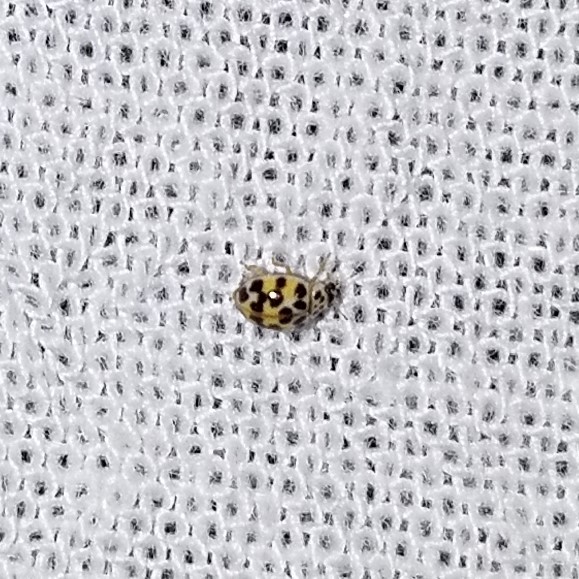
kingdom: Animalia
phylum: Arthropoda
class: Insecta
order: Coleoptera
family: Coccinellidae
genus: Psyllobora
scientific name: Psyllobora vigintimaculata
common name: Ladybird beetle
